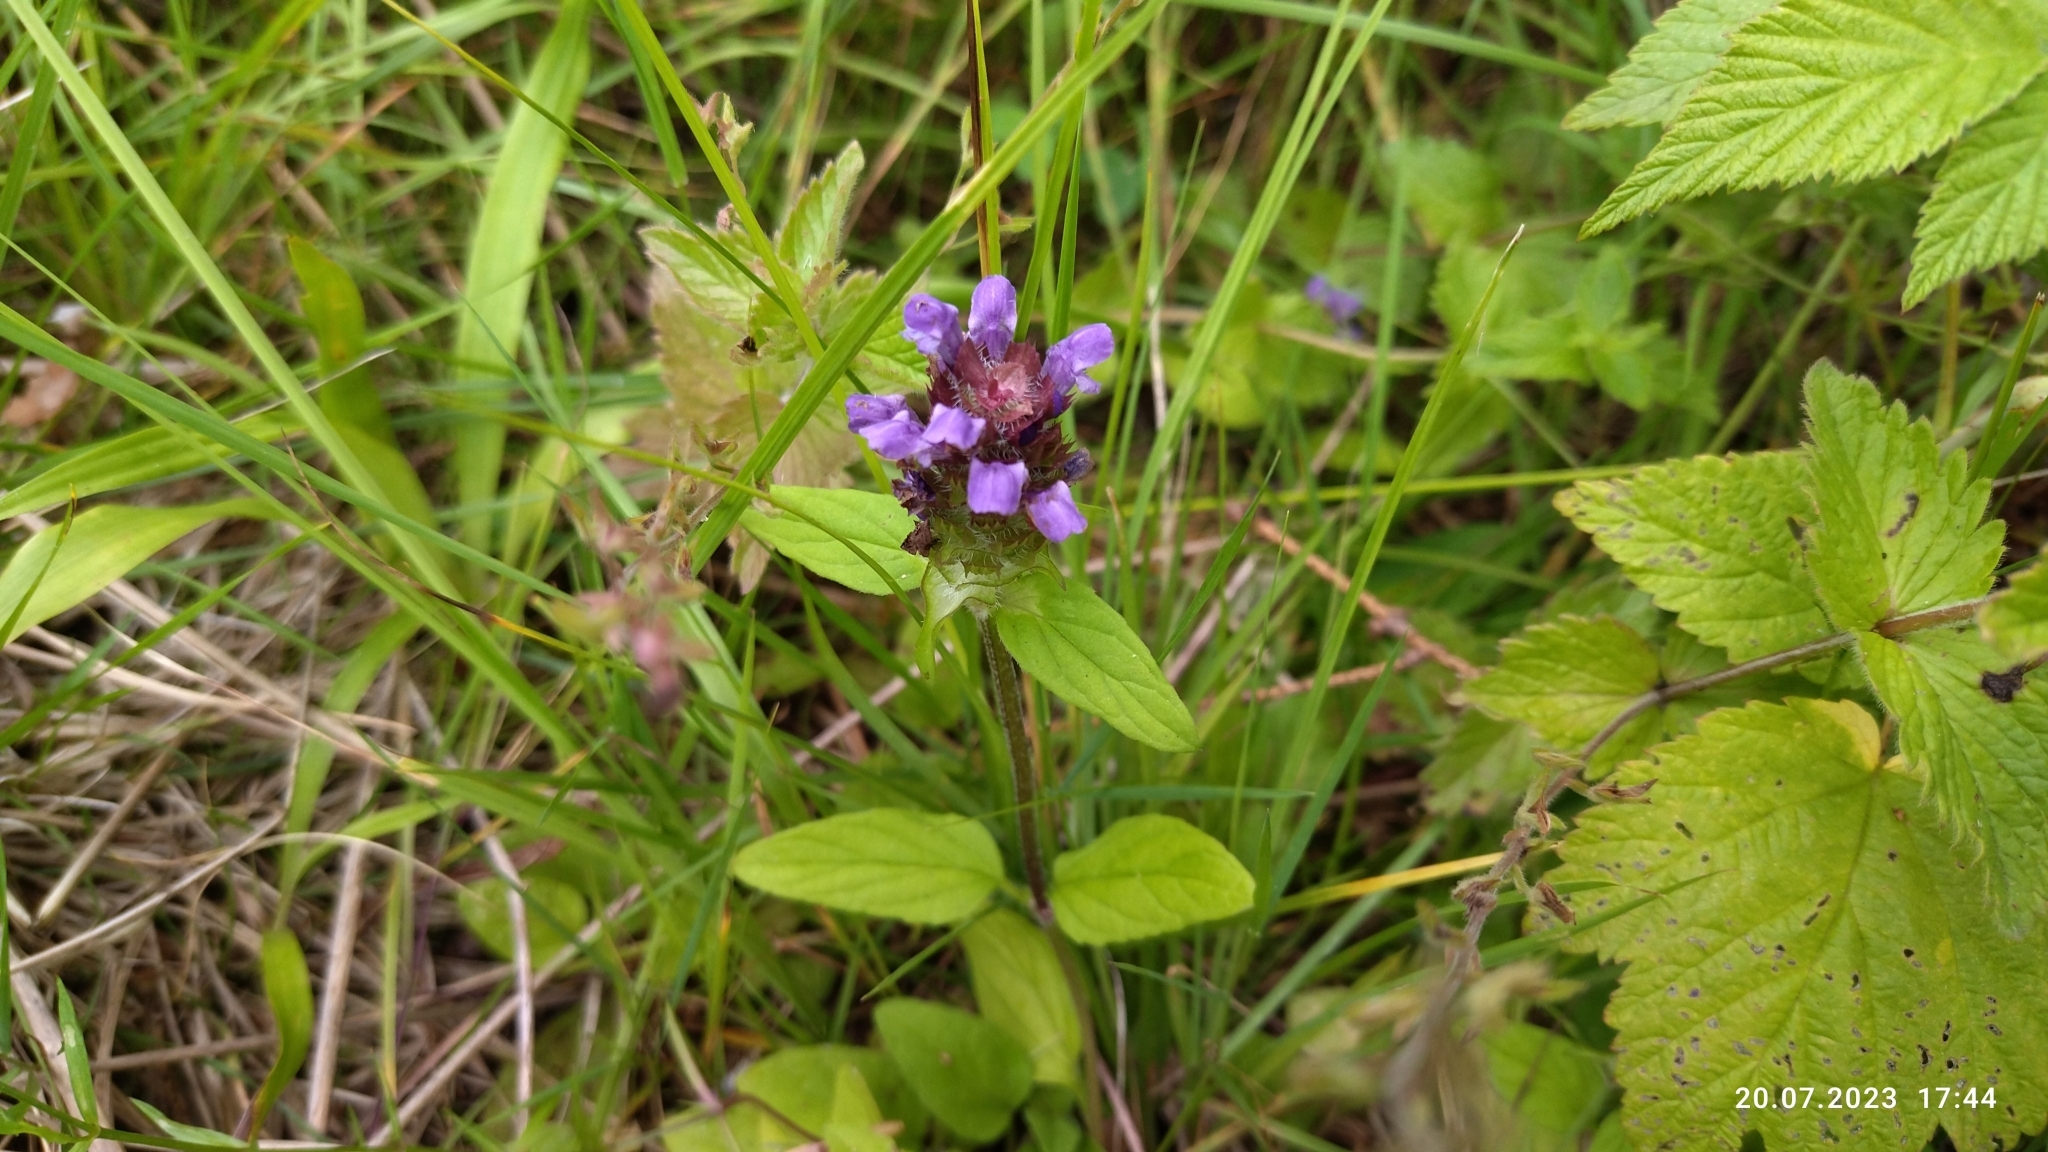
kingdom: Plantae
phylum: Tracheophyta
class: Magnoliopsida
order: Lamiales
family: Lamiaceae
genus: Prunella
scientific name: Prunella vulgaris
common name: Heal-all
